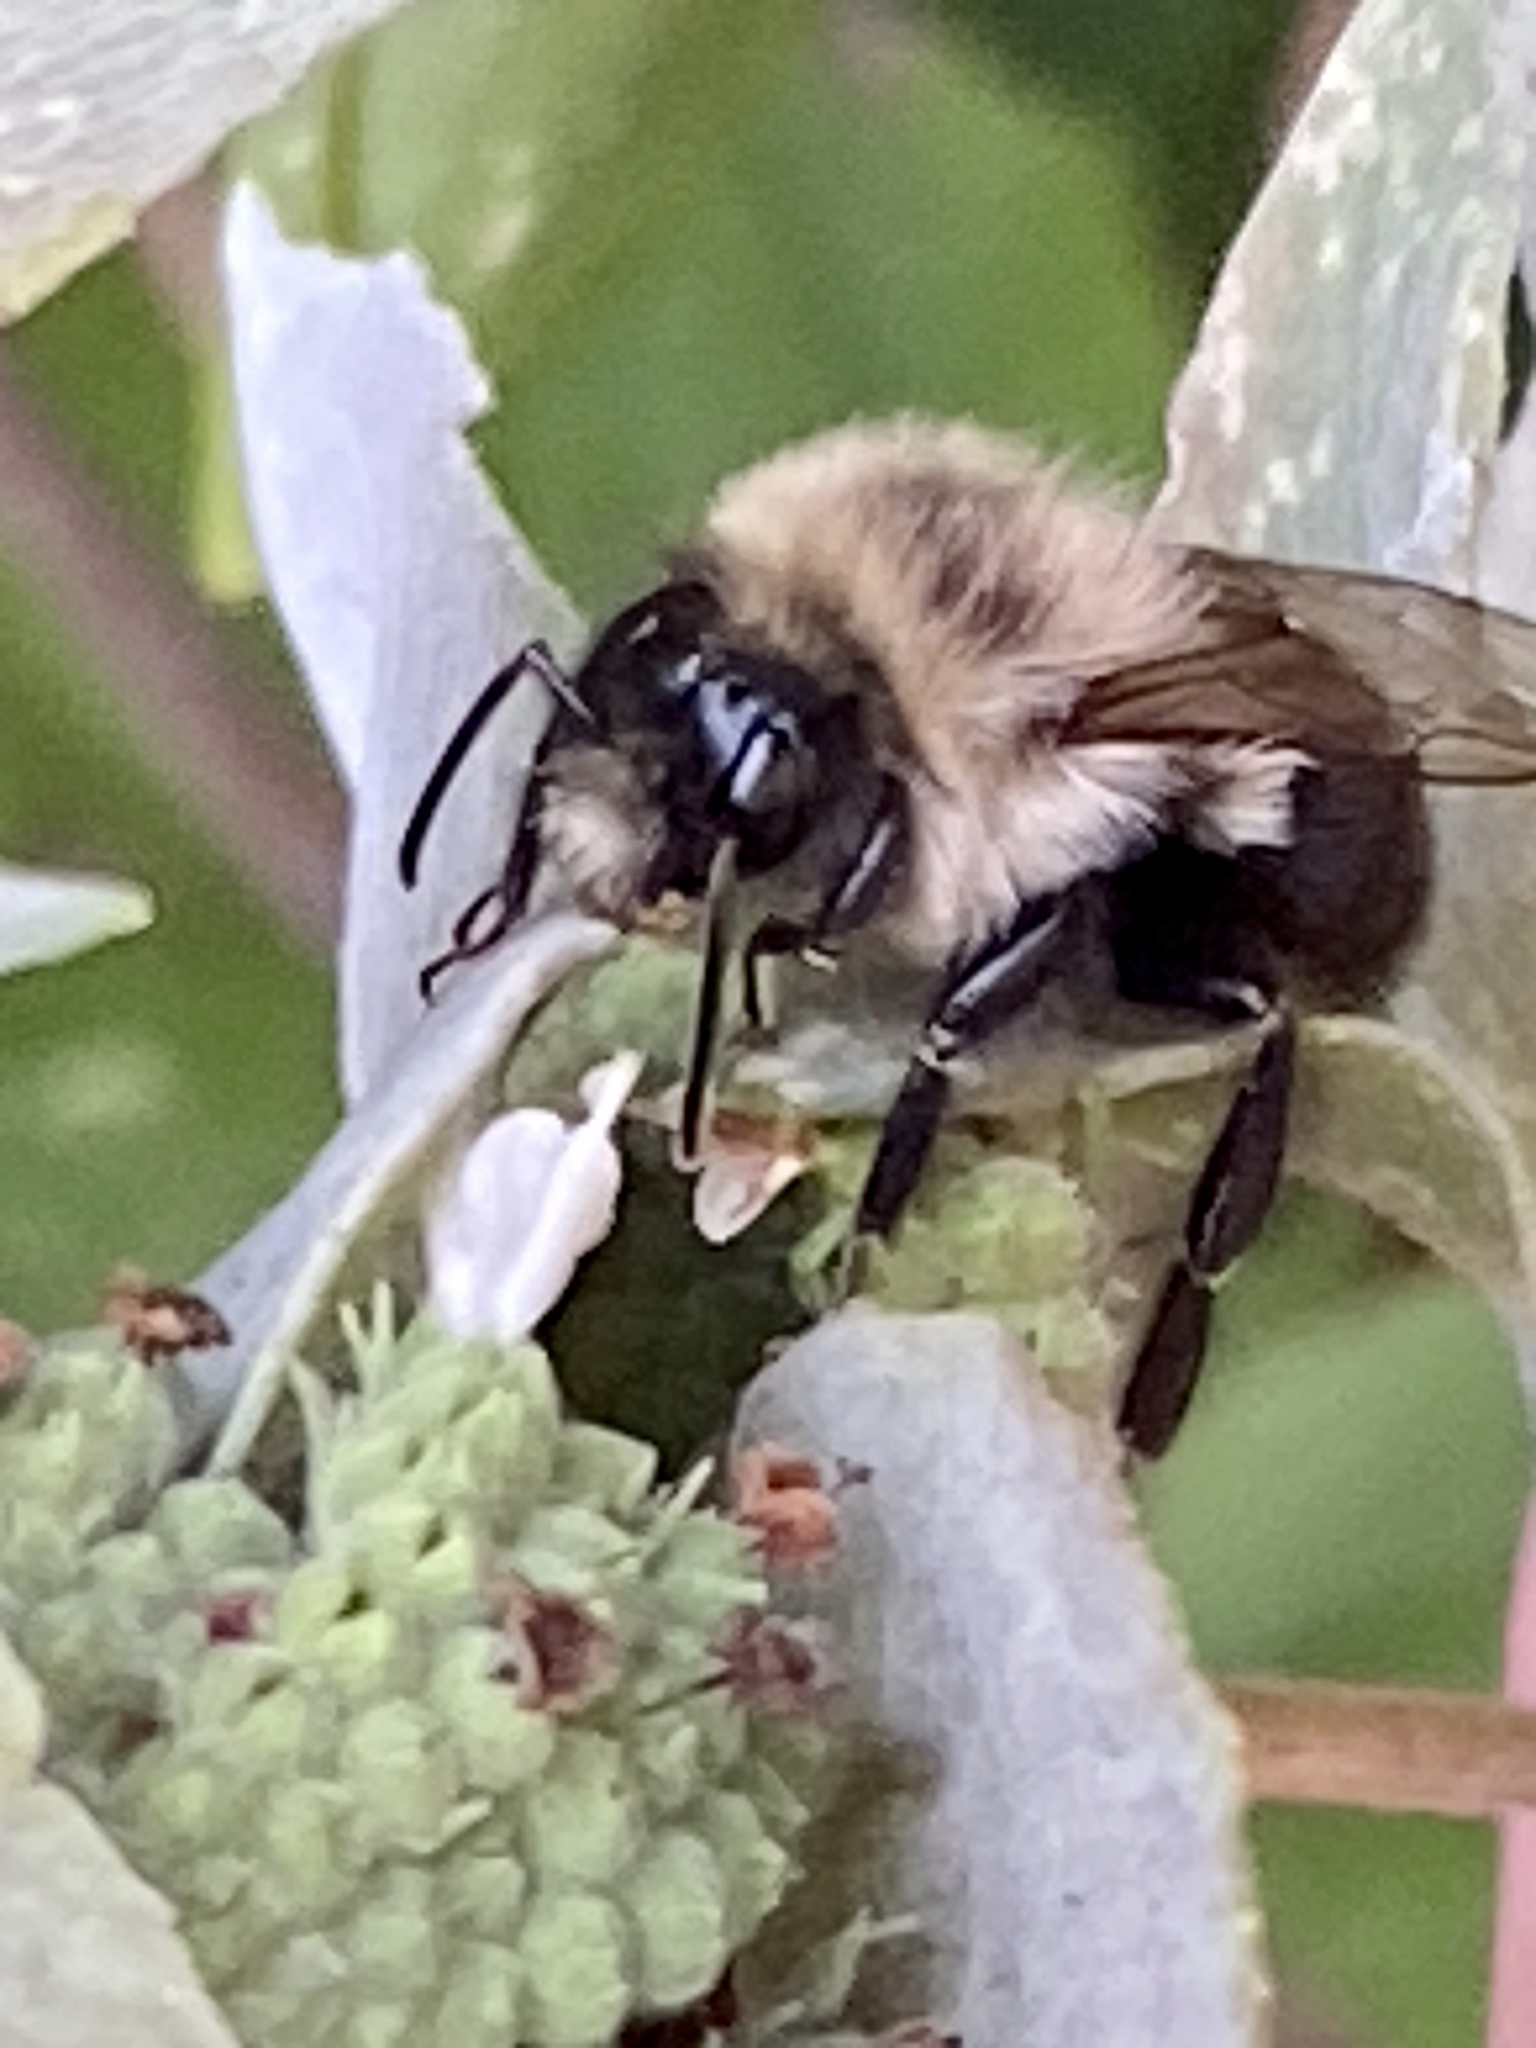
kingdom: Animalia
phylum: Arthropoda
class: Insecta
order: Hymenoptera
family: Apidae
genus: Bombus
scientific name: Bombus impatiens
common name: Common eastern bumble bee
